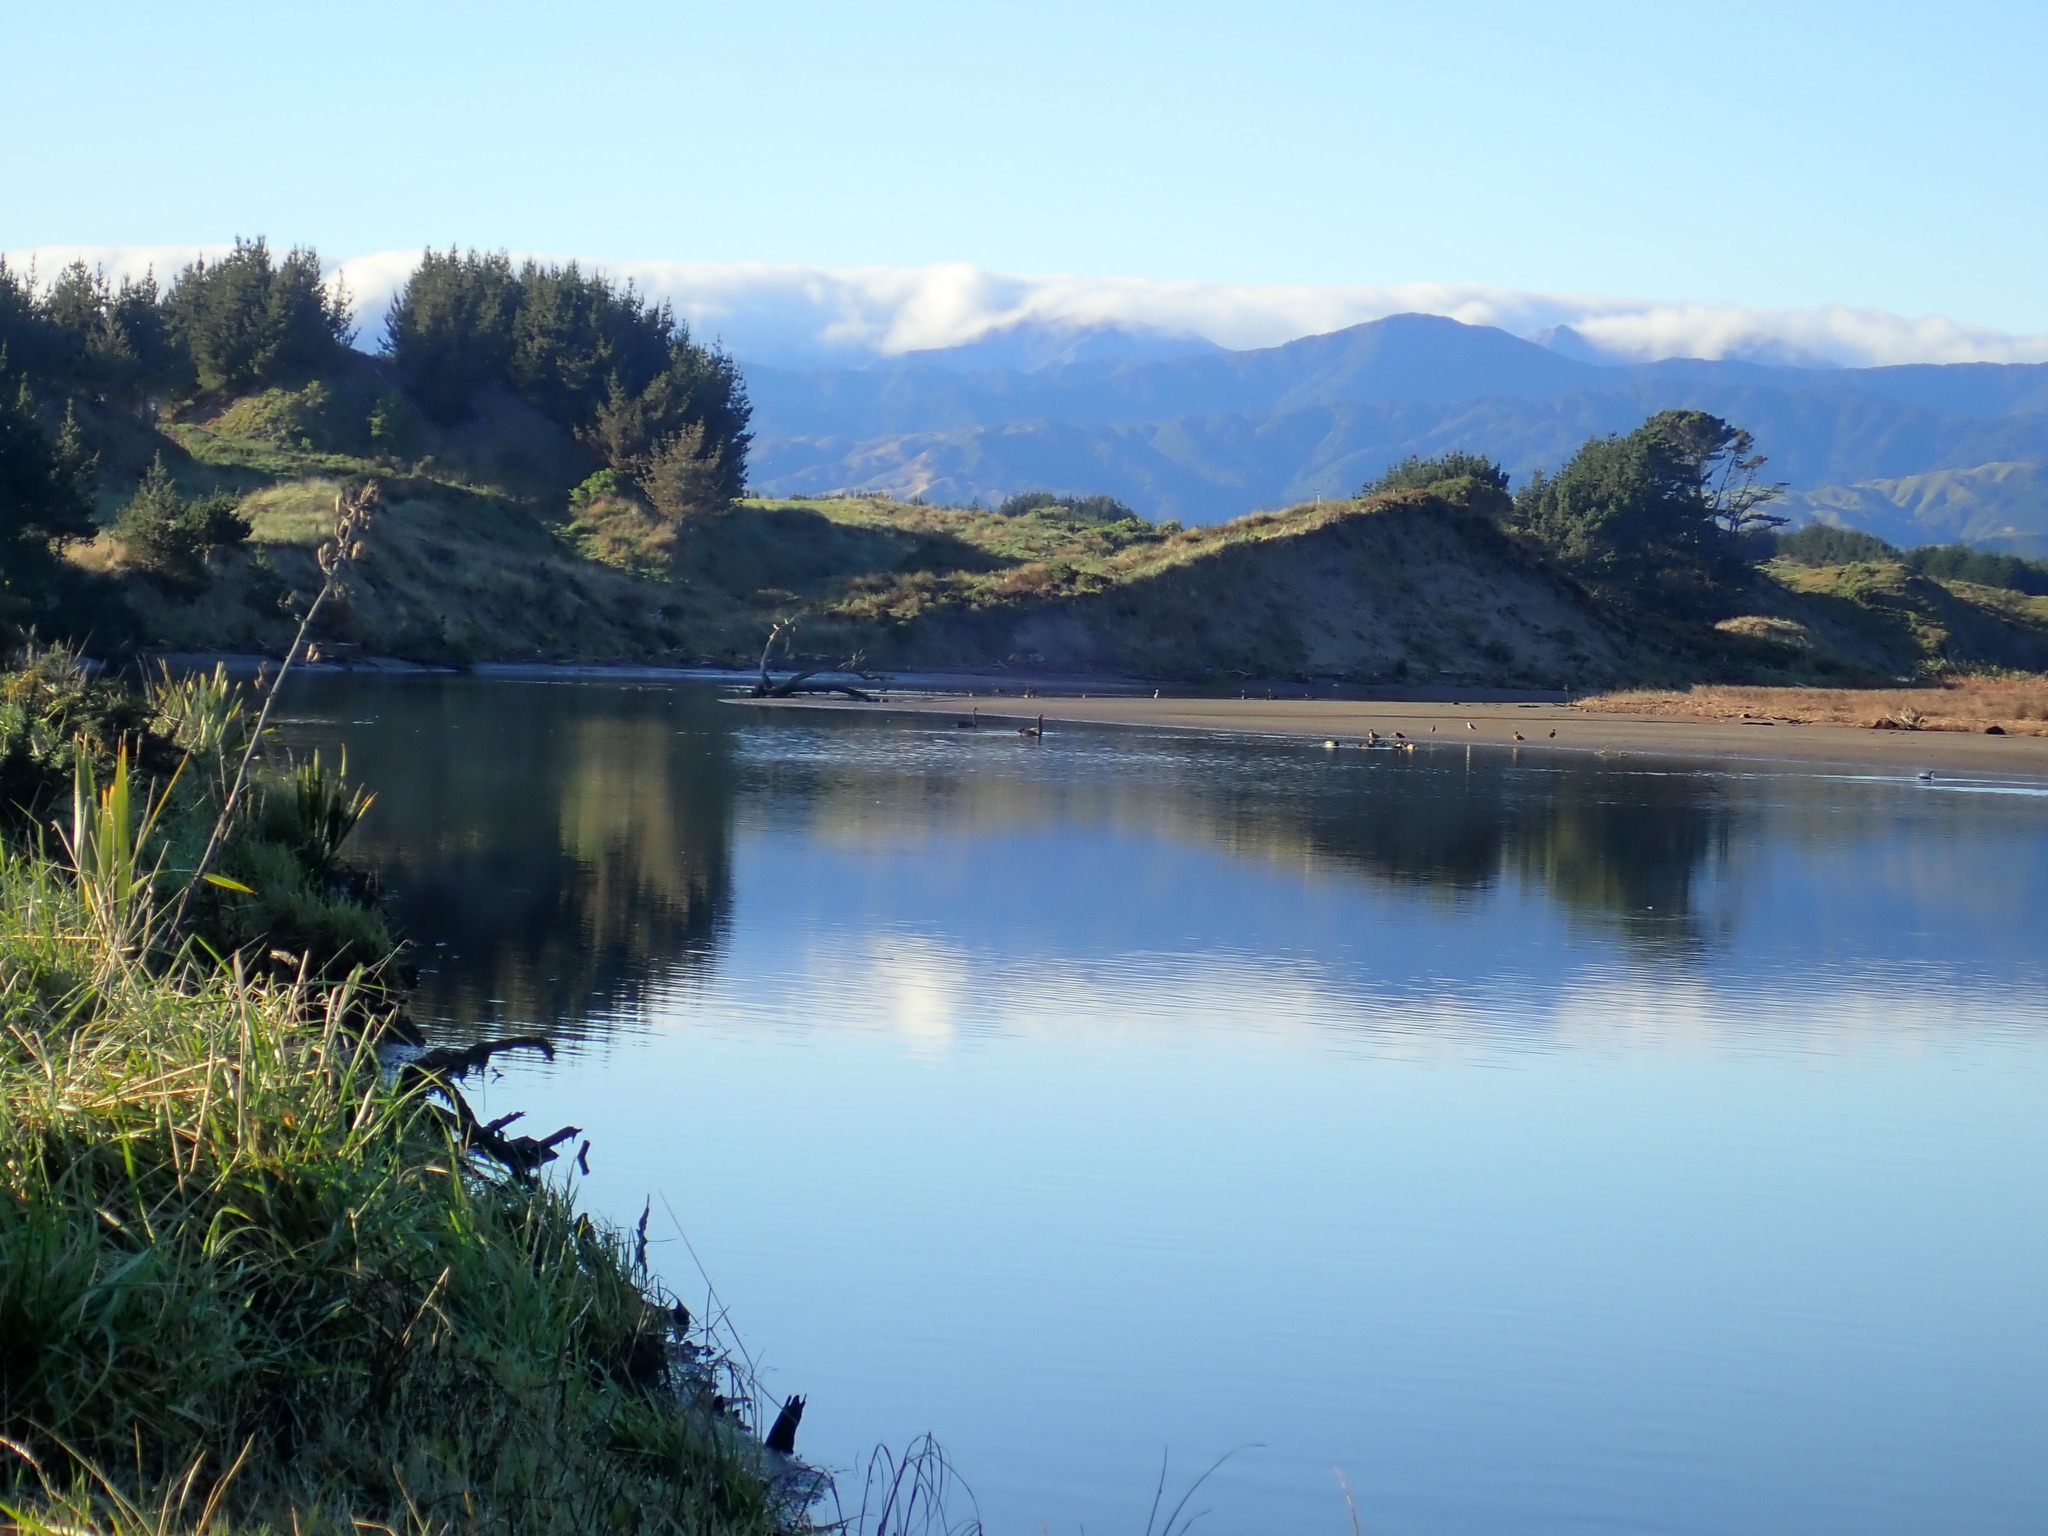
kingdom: Animalia
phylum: Chordata
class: Aves
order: Anseriformes
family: Anatidae
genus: Cygnus
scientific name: Cygnus atratus
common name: Black swan
